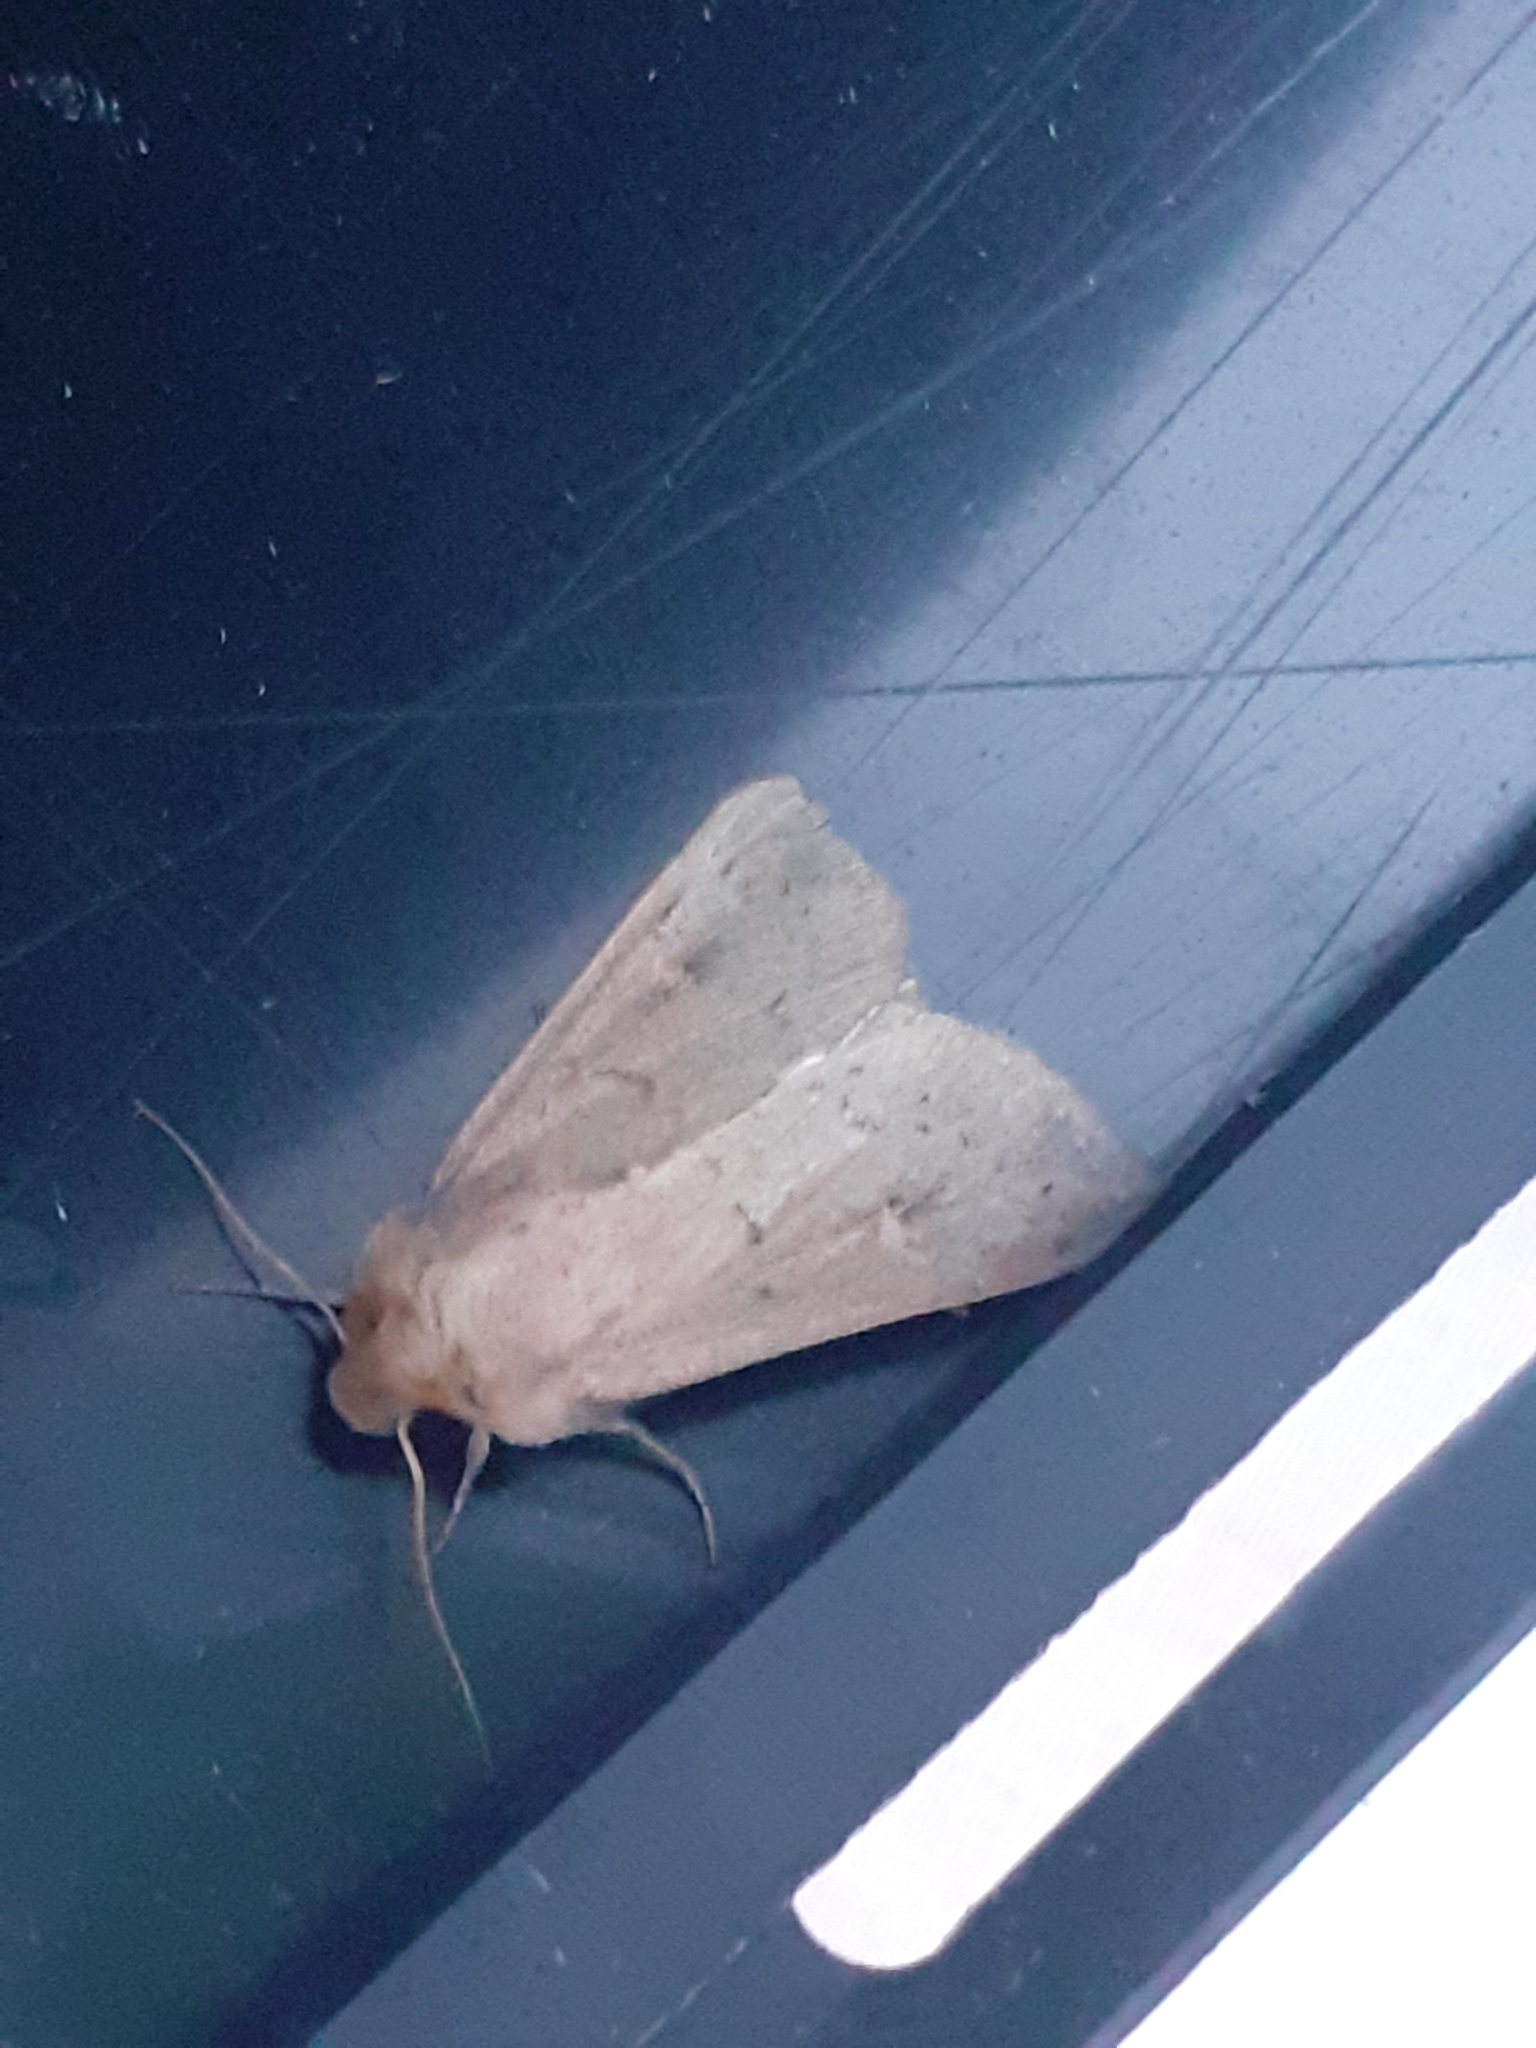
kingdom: Animalia
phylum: Arthropoda
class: Insecta
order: Lepidoptera
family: Noctuidae
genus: Mythimna
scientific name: Mythimna ferrago
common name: Clay
